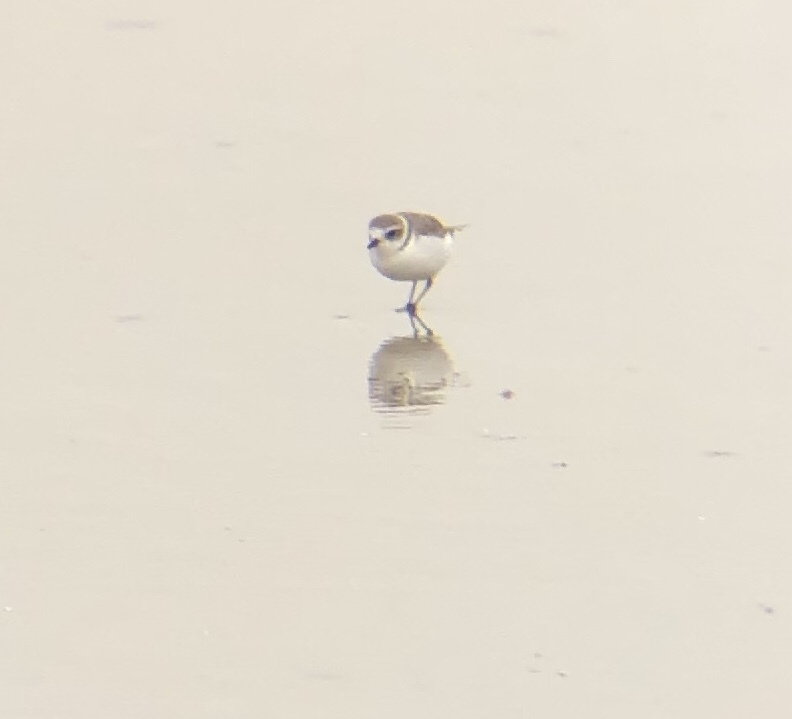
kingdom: Animalia
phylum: Chordata
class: Aves
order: Charadriiformes
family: Charadriidae
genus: Anarhynchus
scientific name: Anarhynchus
